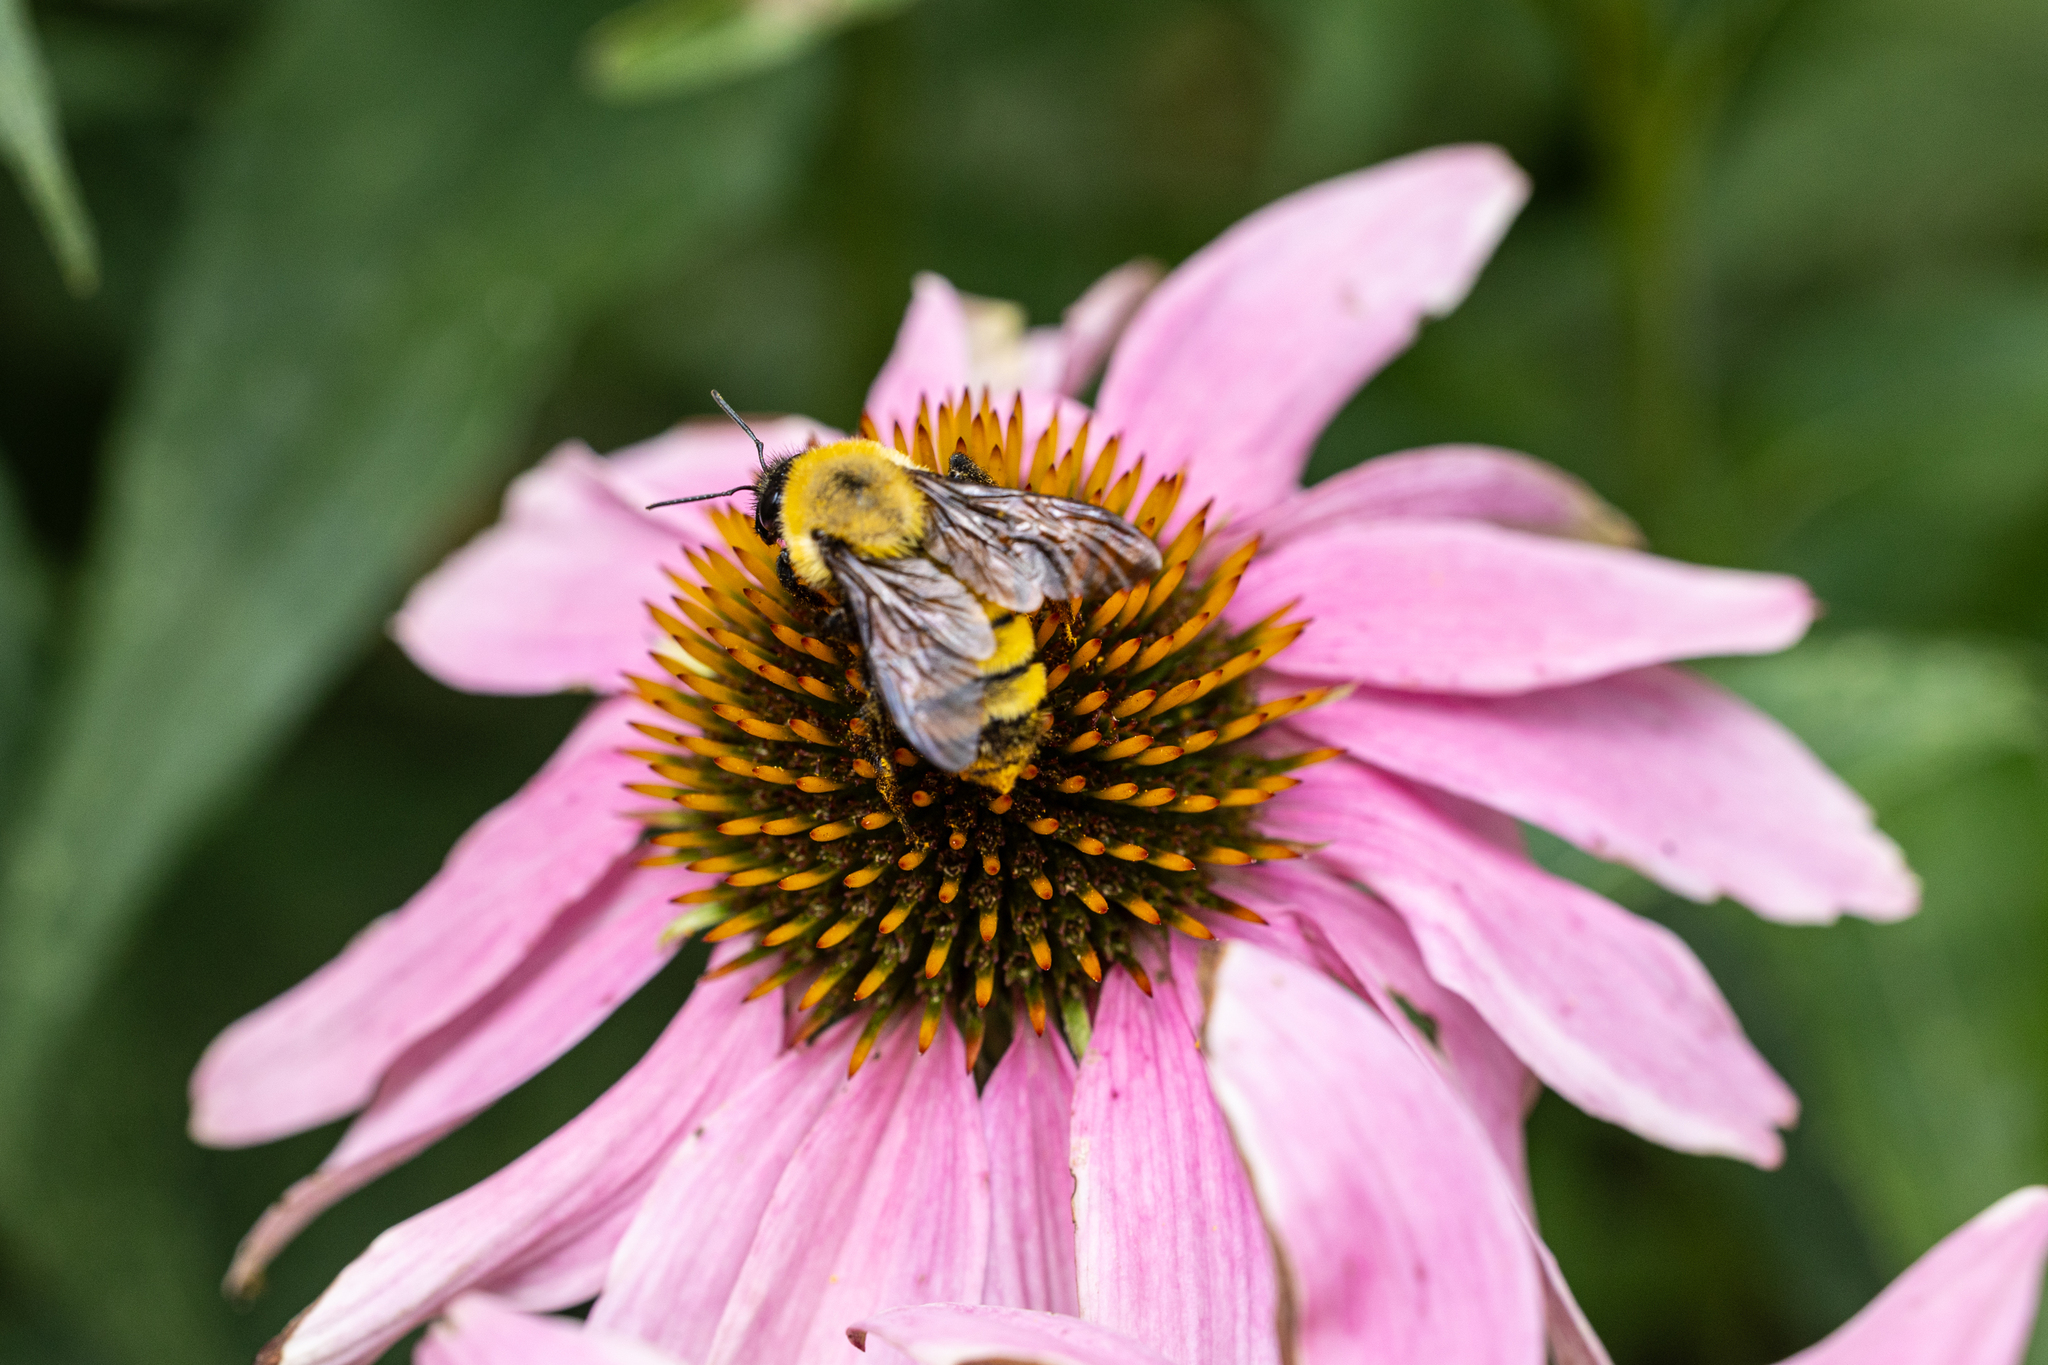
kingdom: Animalia
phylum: Arthropoda
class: Insecta
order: Hymenoptera
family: Apidae
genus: Bombus
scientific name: Bombus fervidus
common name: Yellow bumble bee
